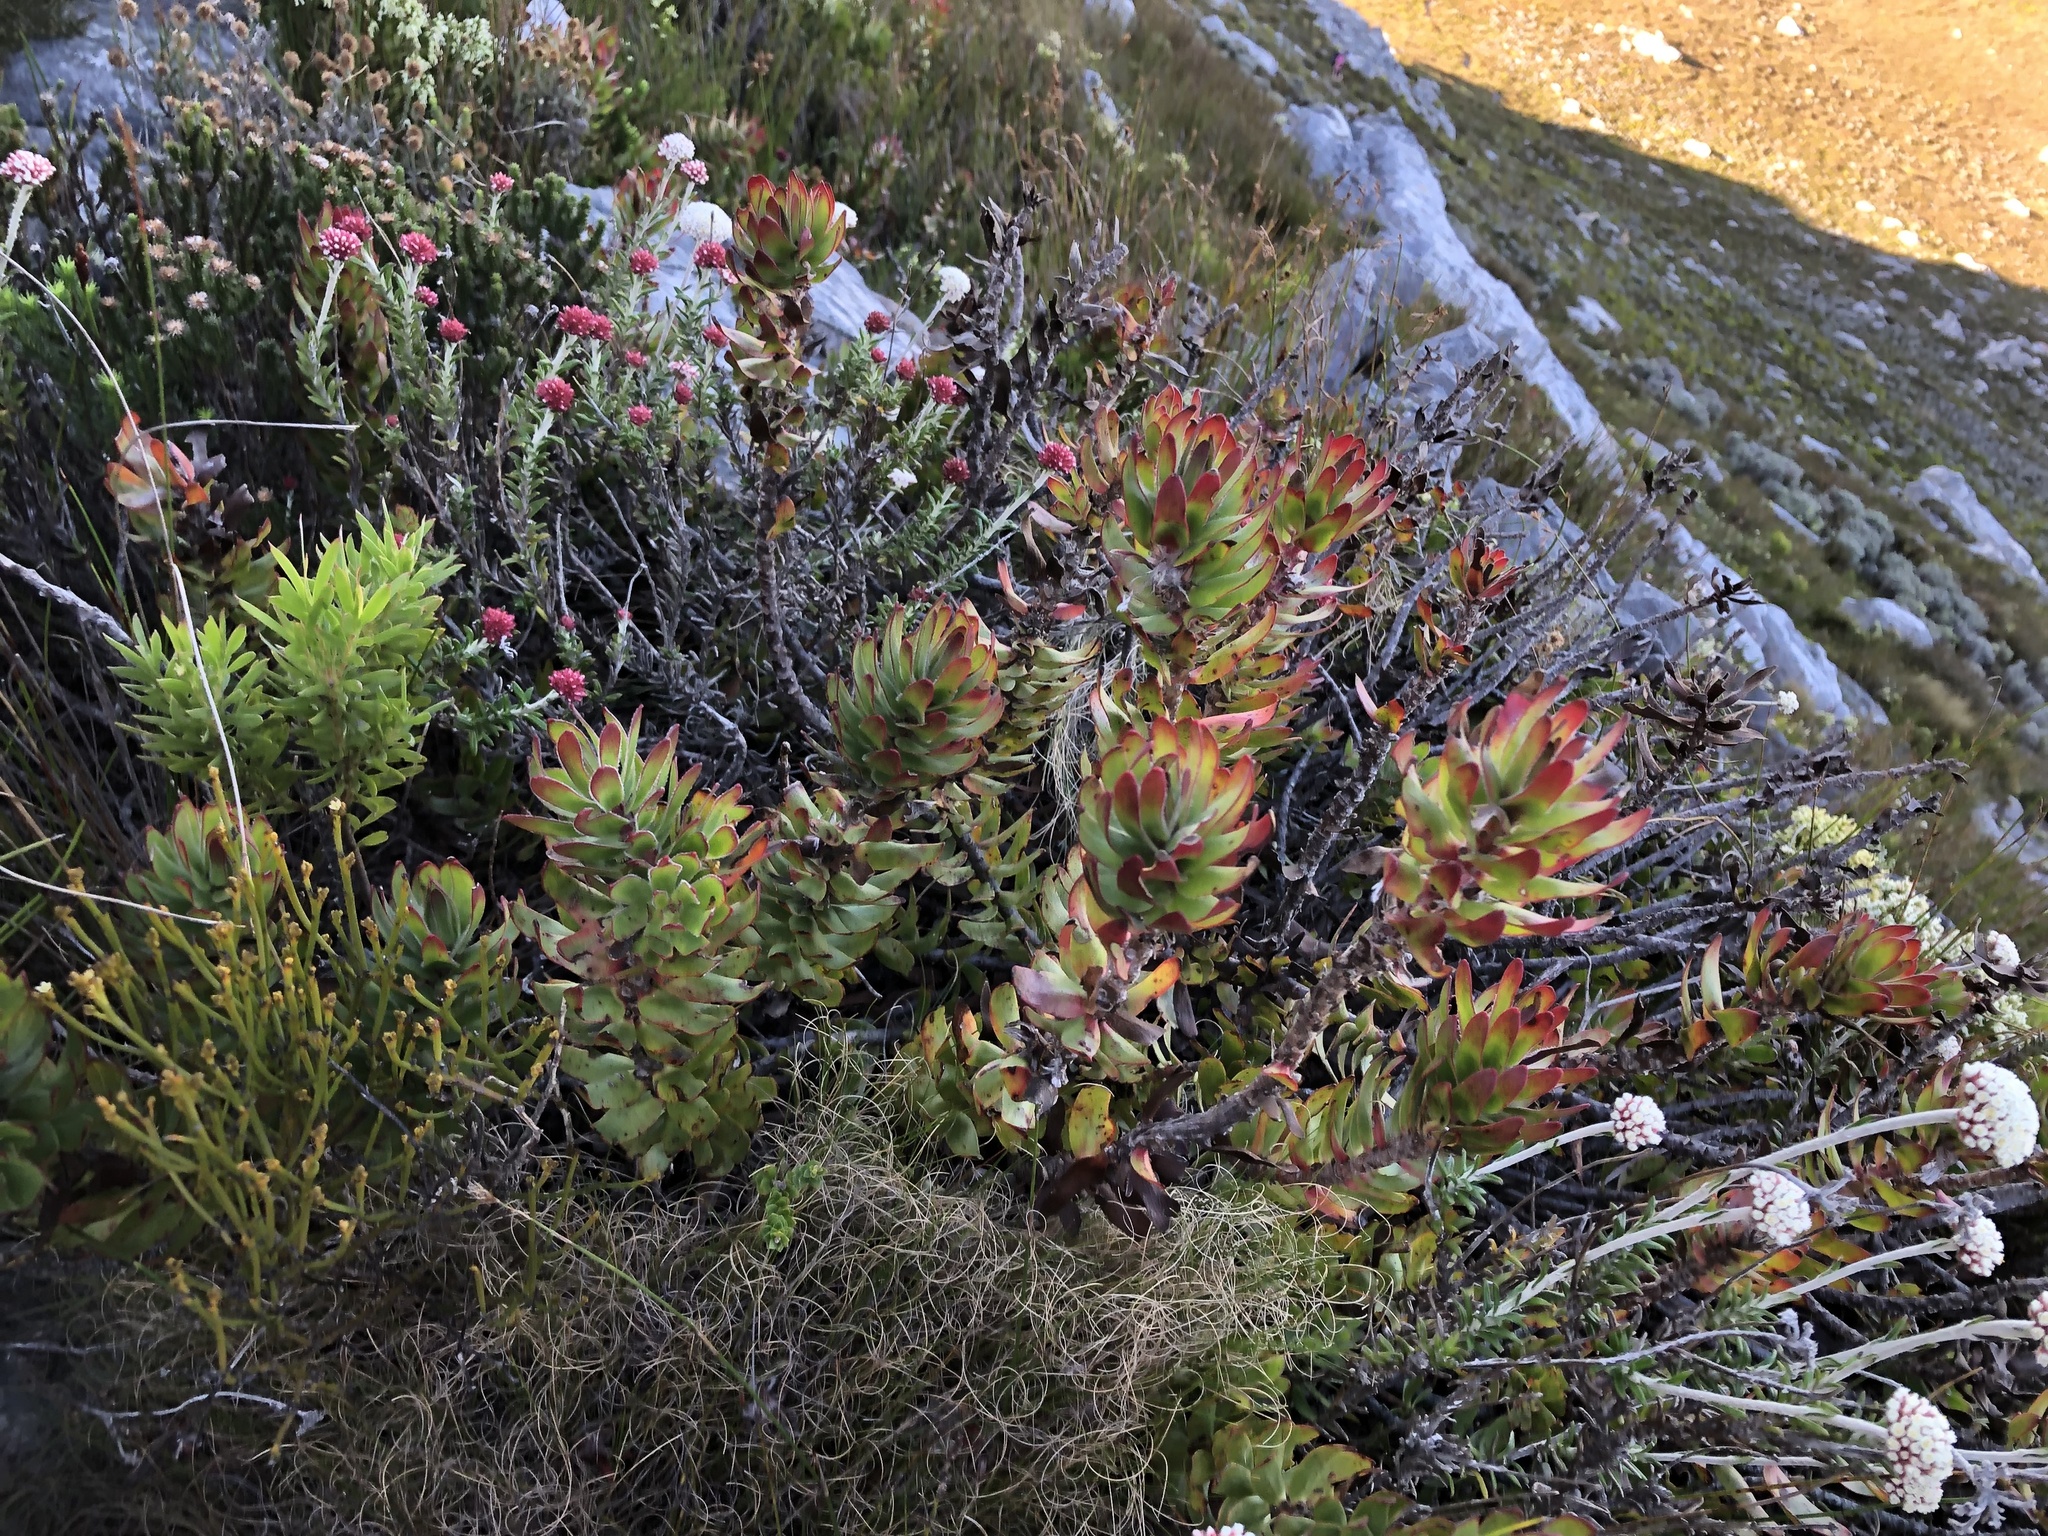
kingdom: Plantae
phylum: Tracheophyta
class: Magnoliopsida
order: Proteales
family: Proteaceae
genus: Mimetes
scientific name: Mimetes cucullatus
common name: Common pagoda
